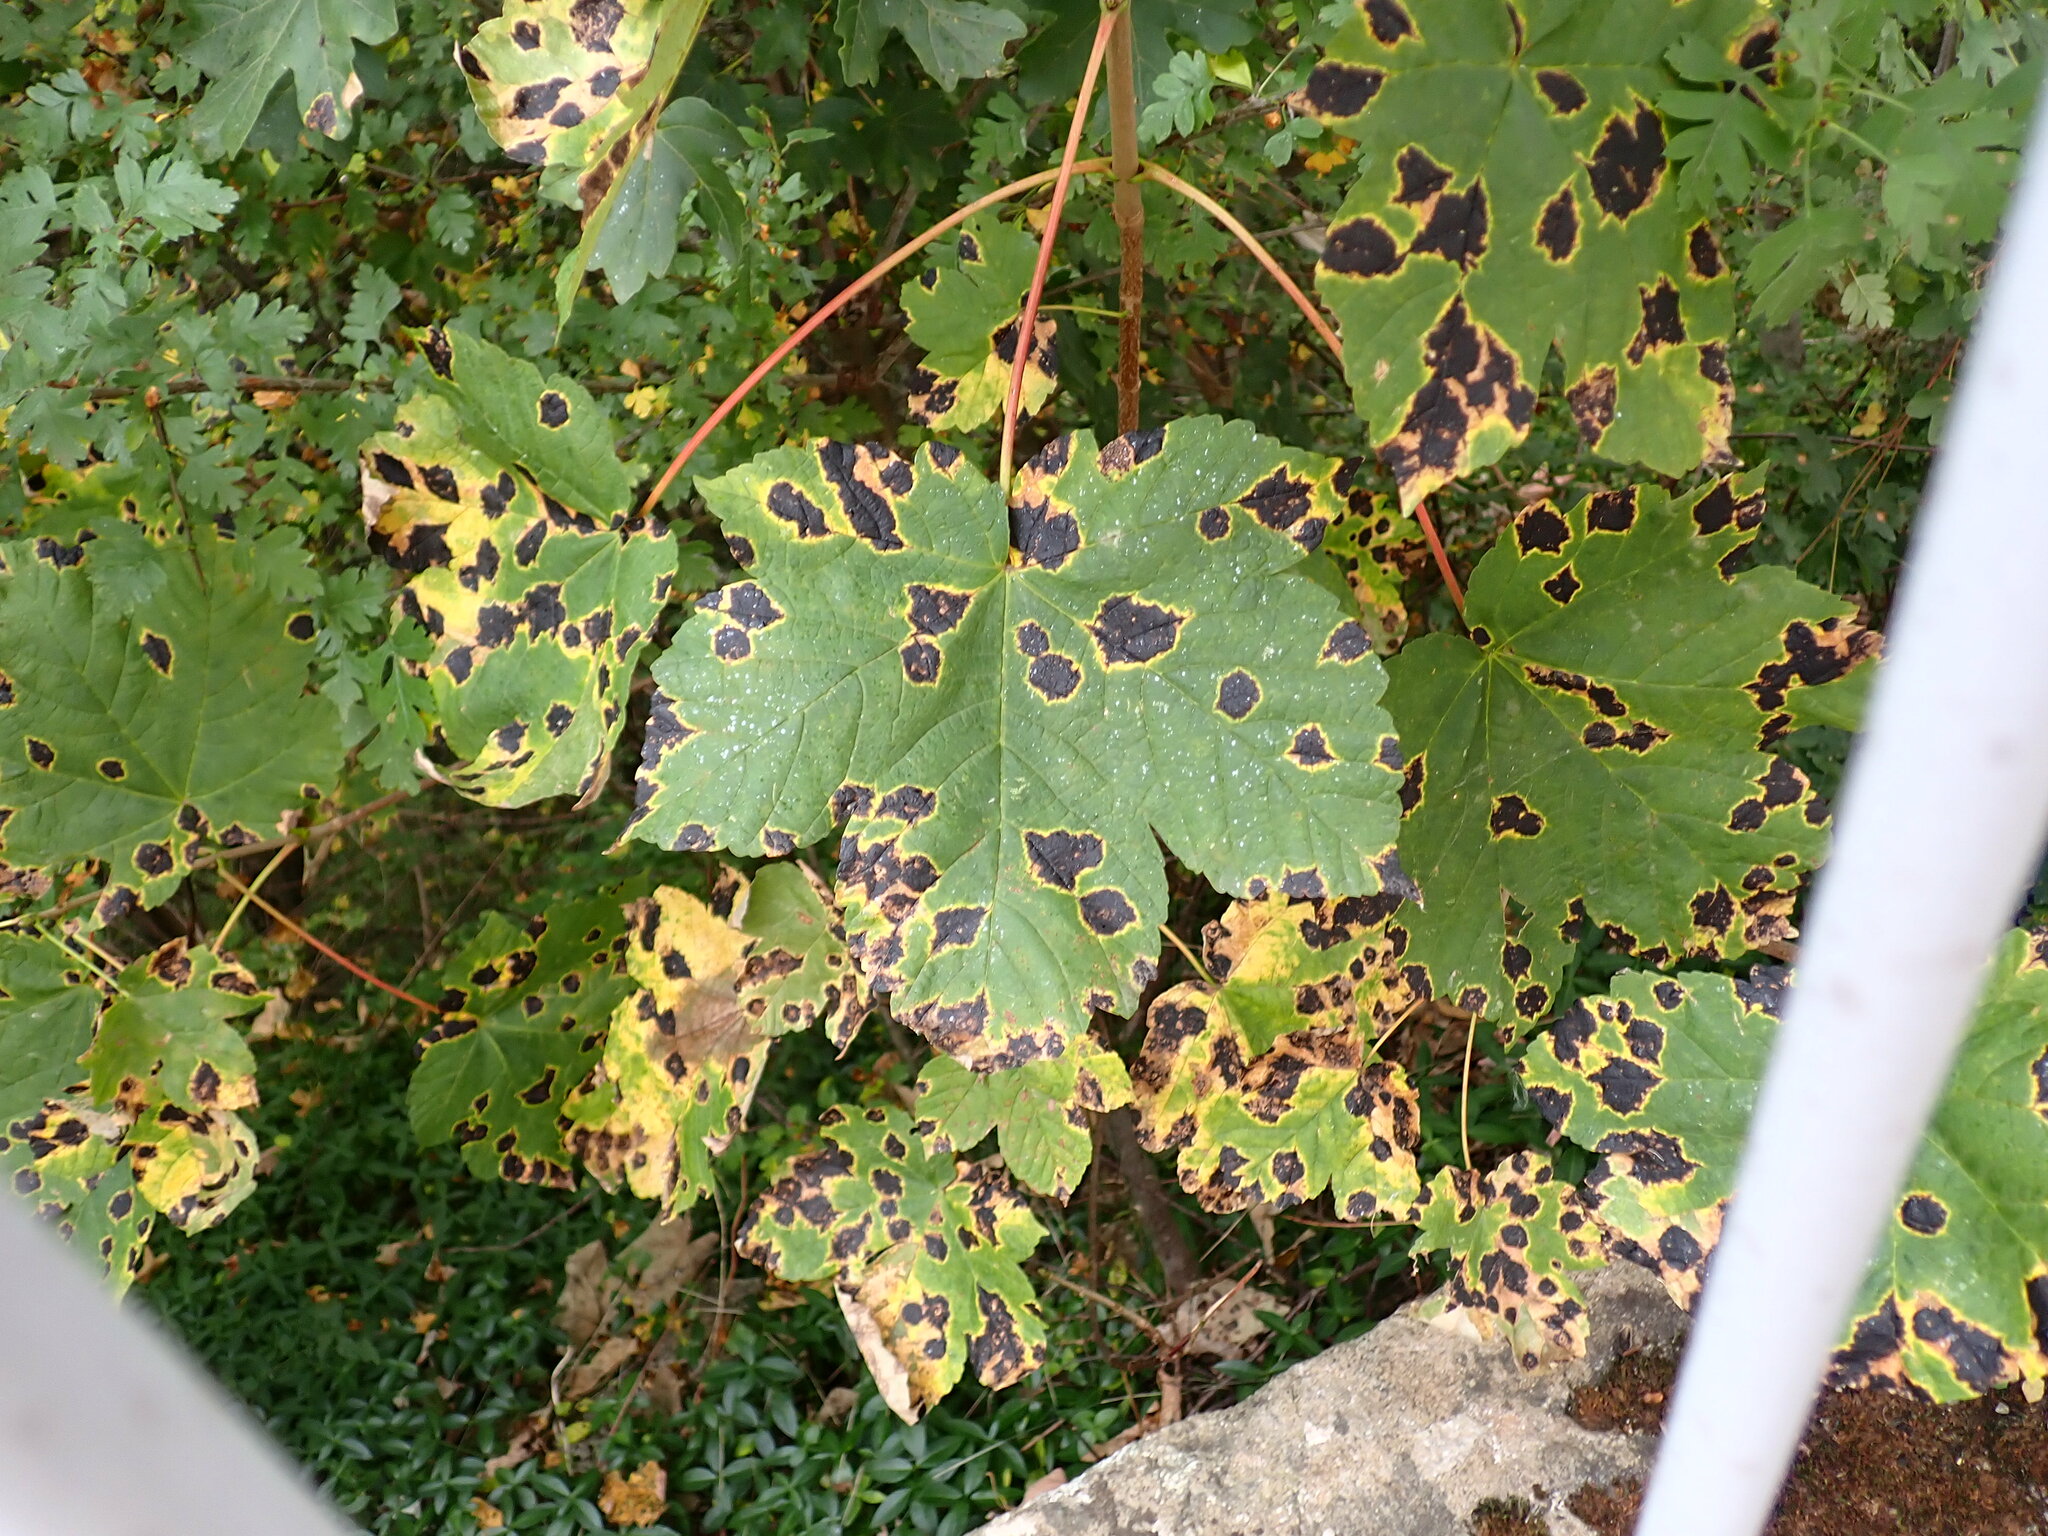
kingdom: Fungi
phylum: Ascomycota
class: Leotiomycetes
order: Rhytismatales
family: Rhytismataceae
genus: Rhytisma
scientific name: Rhytisma acerinum
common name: European tar spot
